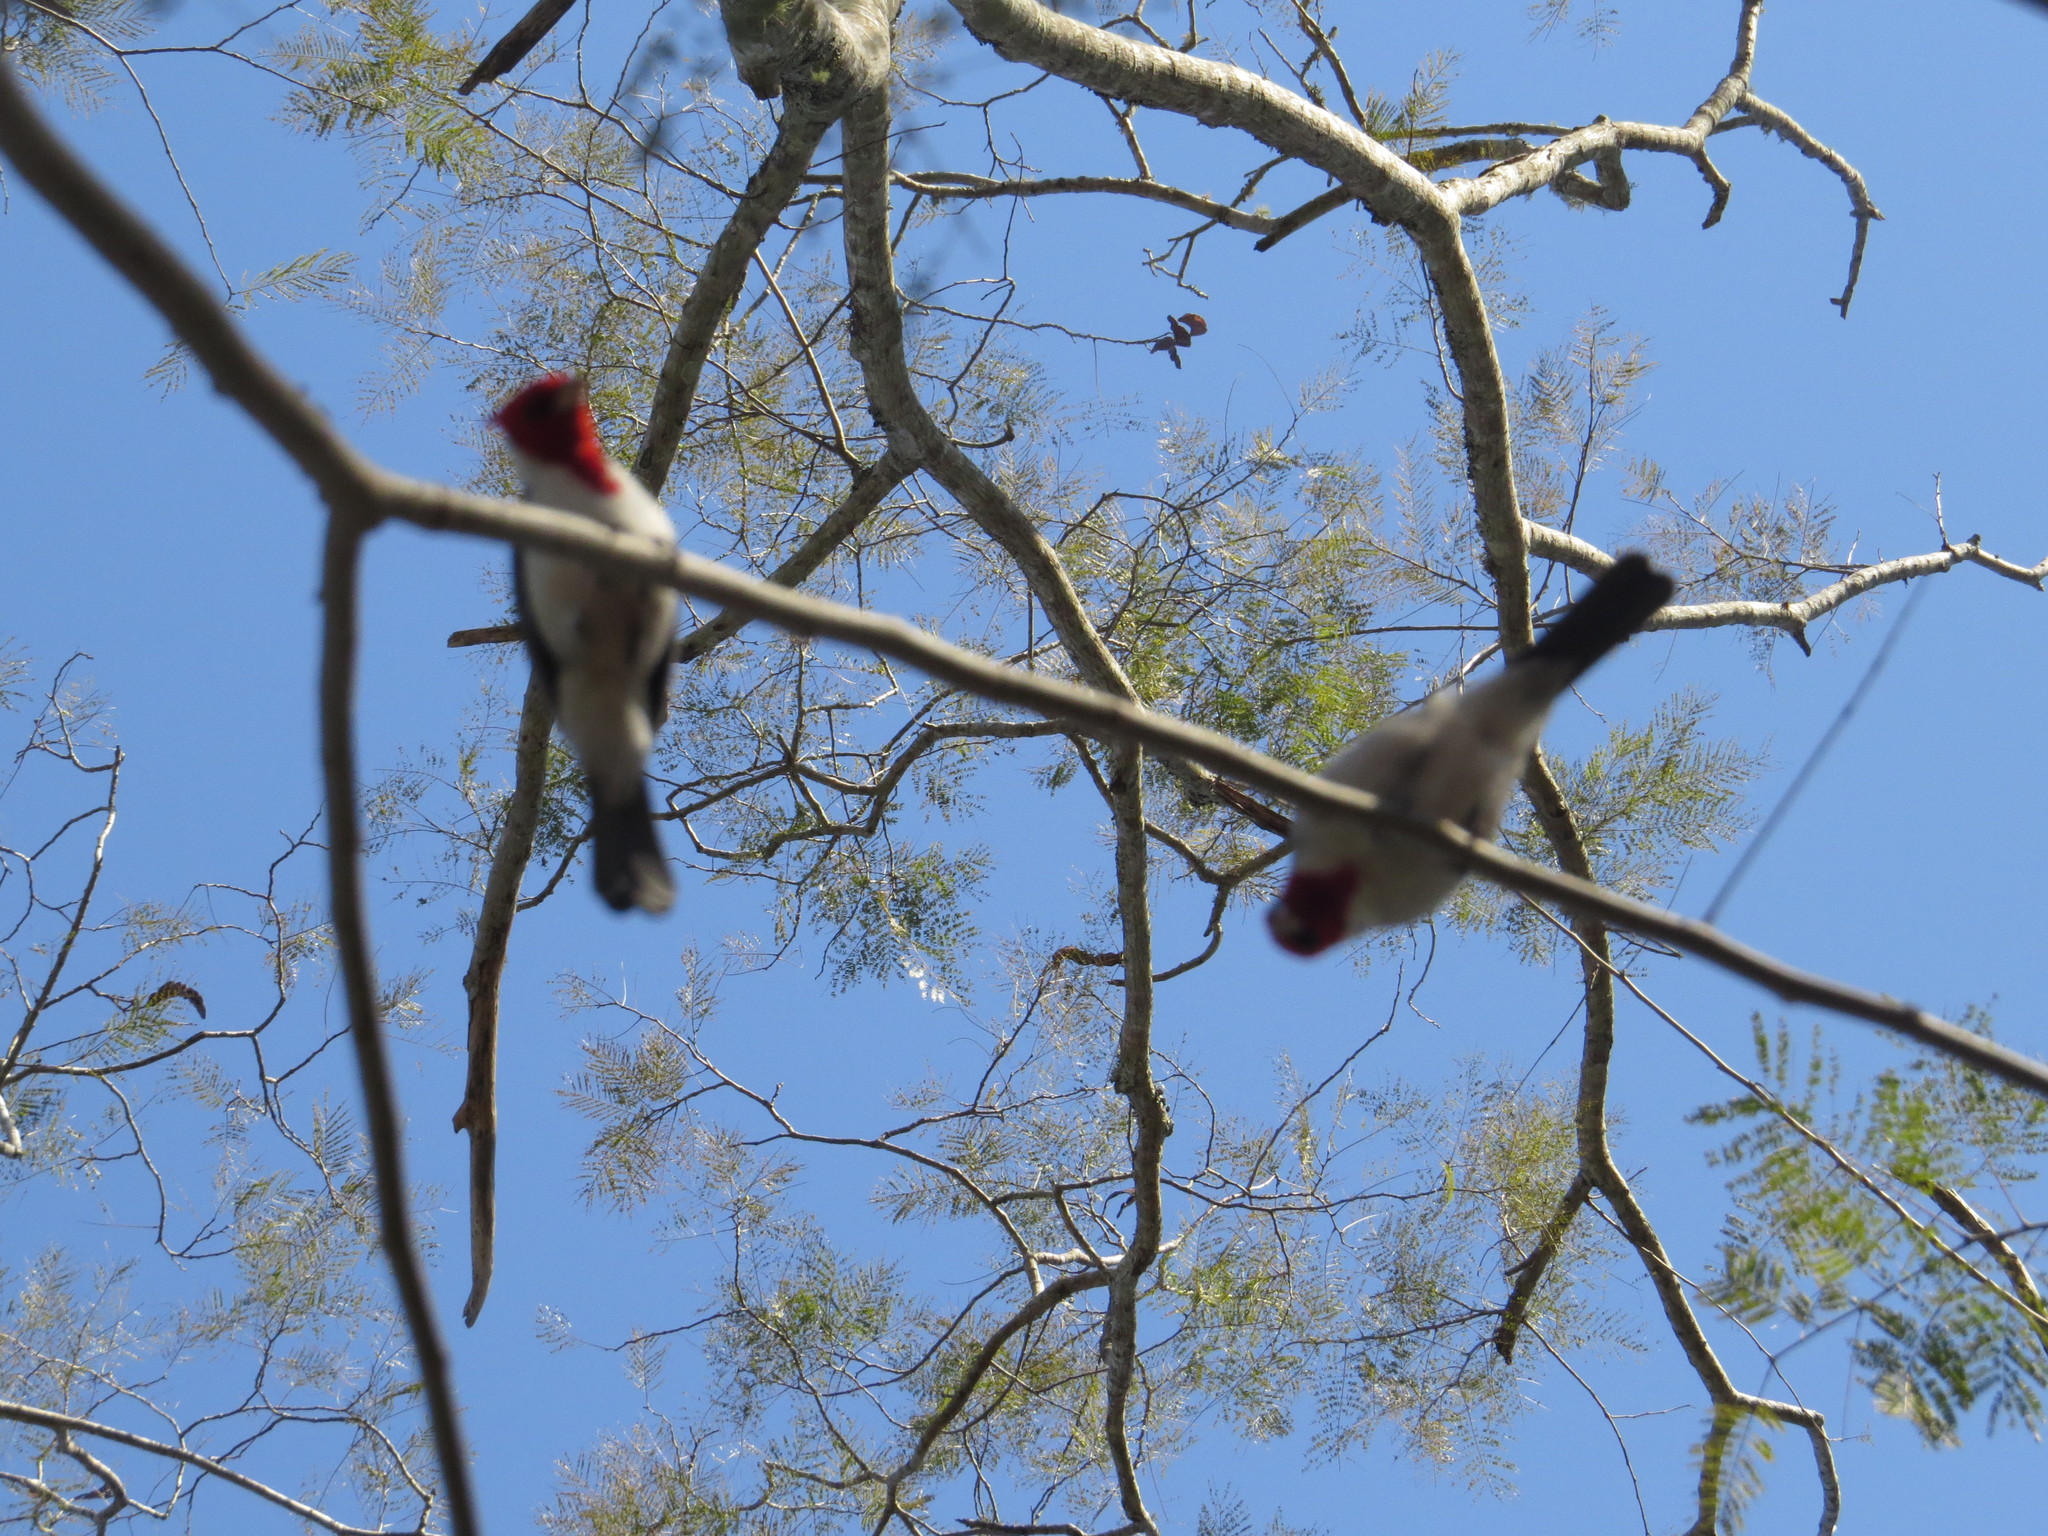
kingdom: Animalia
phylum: Chordata
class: Aves
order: Passeriformes
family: Thraupidae
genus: Paroaria
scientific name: Paroaria coronata
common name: Red-crested cardinal
